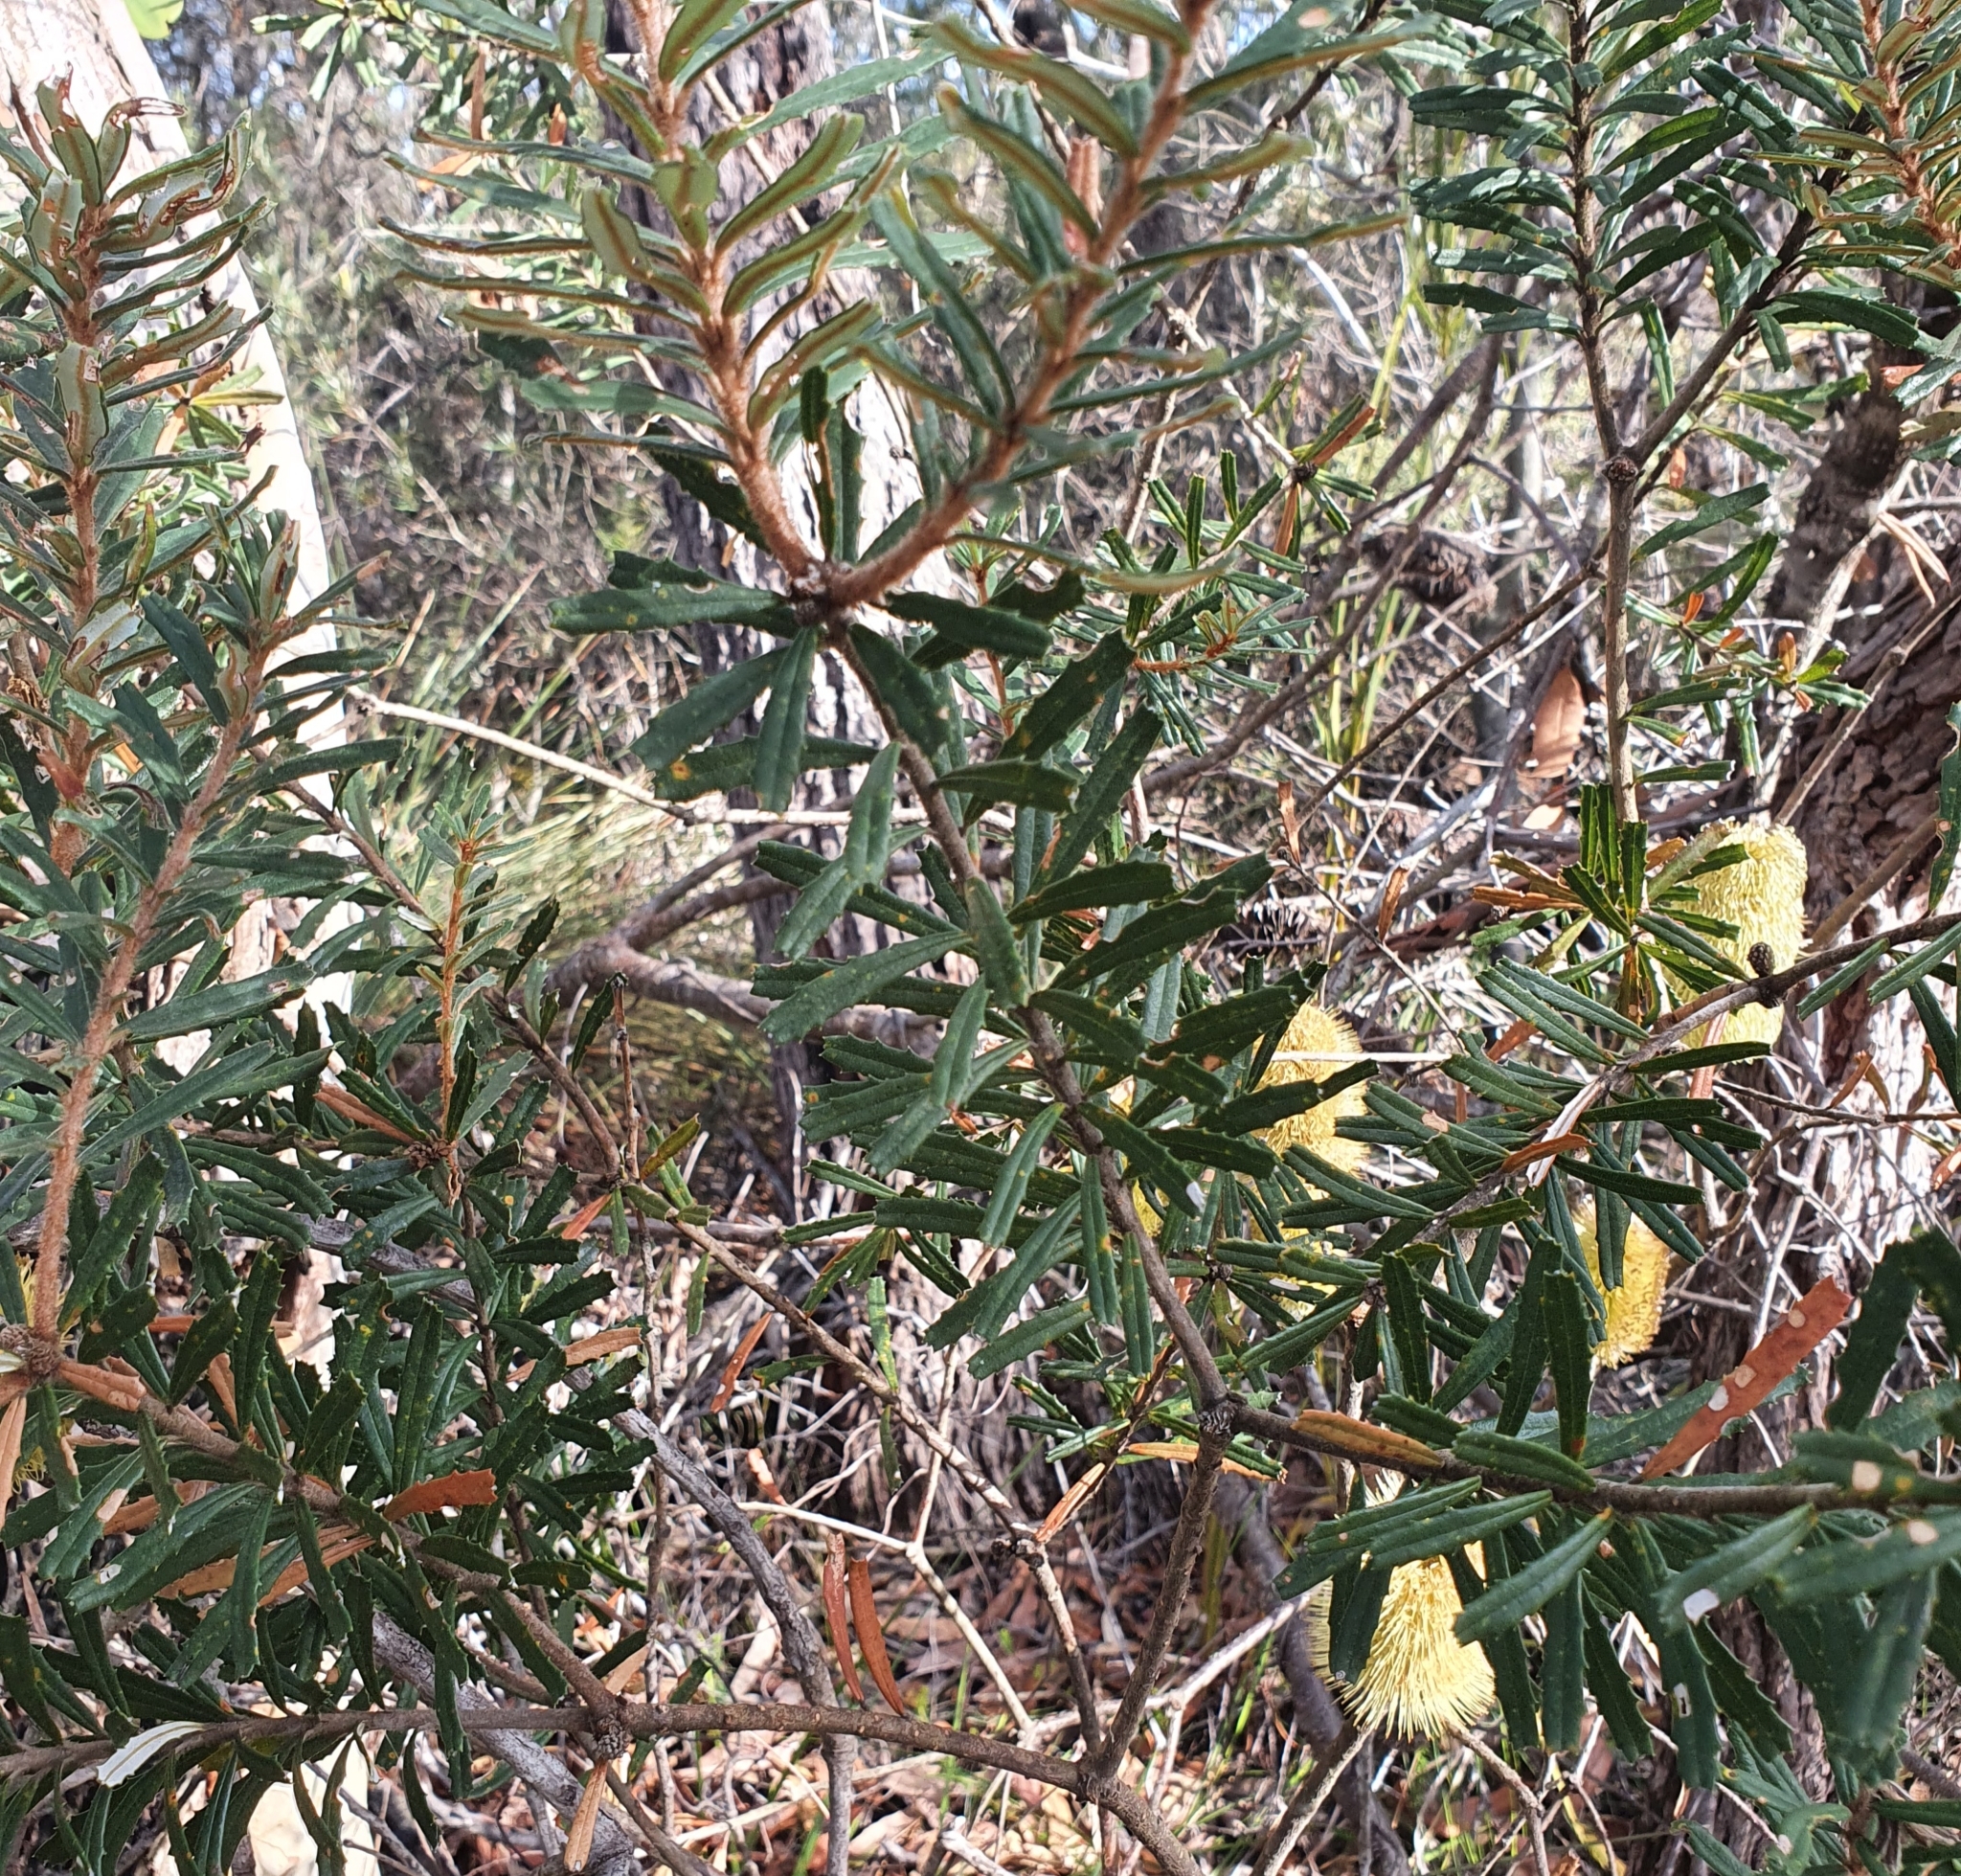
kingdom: Plantae
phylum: Tracheophyta
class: Magnoliopsida
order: Proteales
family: Proteaceae
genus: Banksia
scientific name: Banksia marginata
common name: Silver banksia
